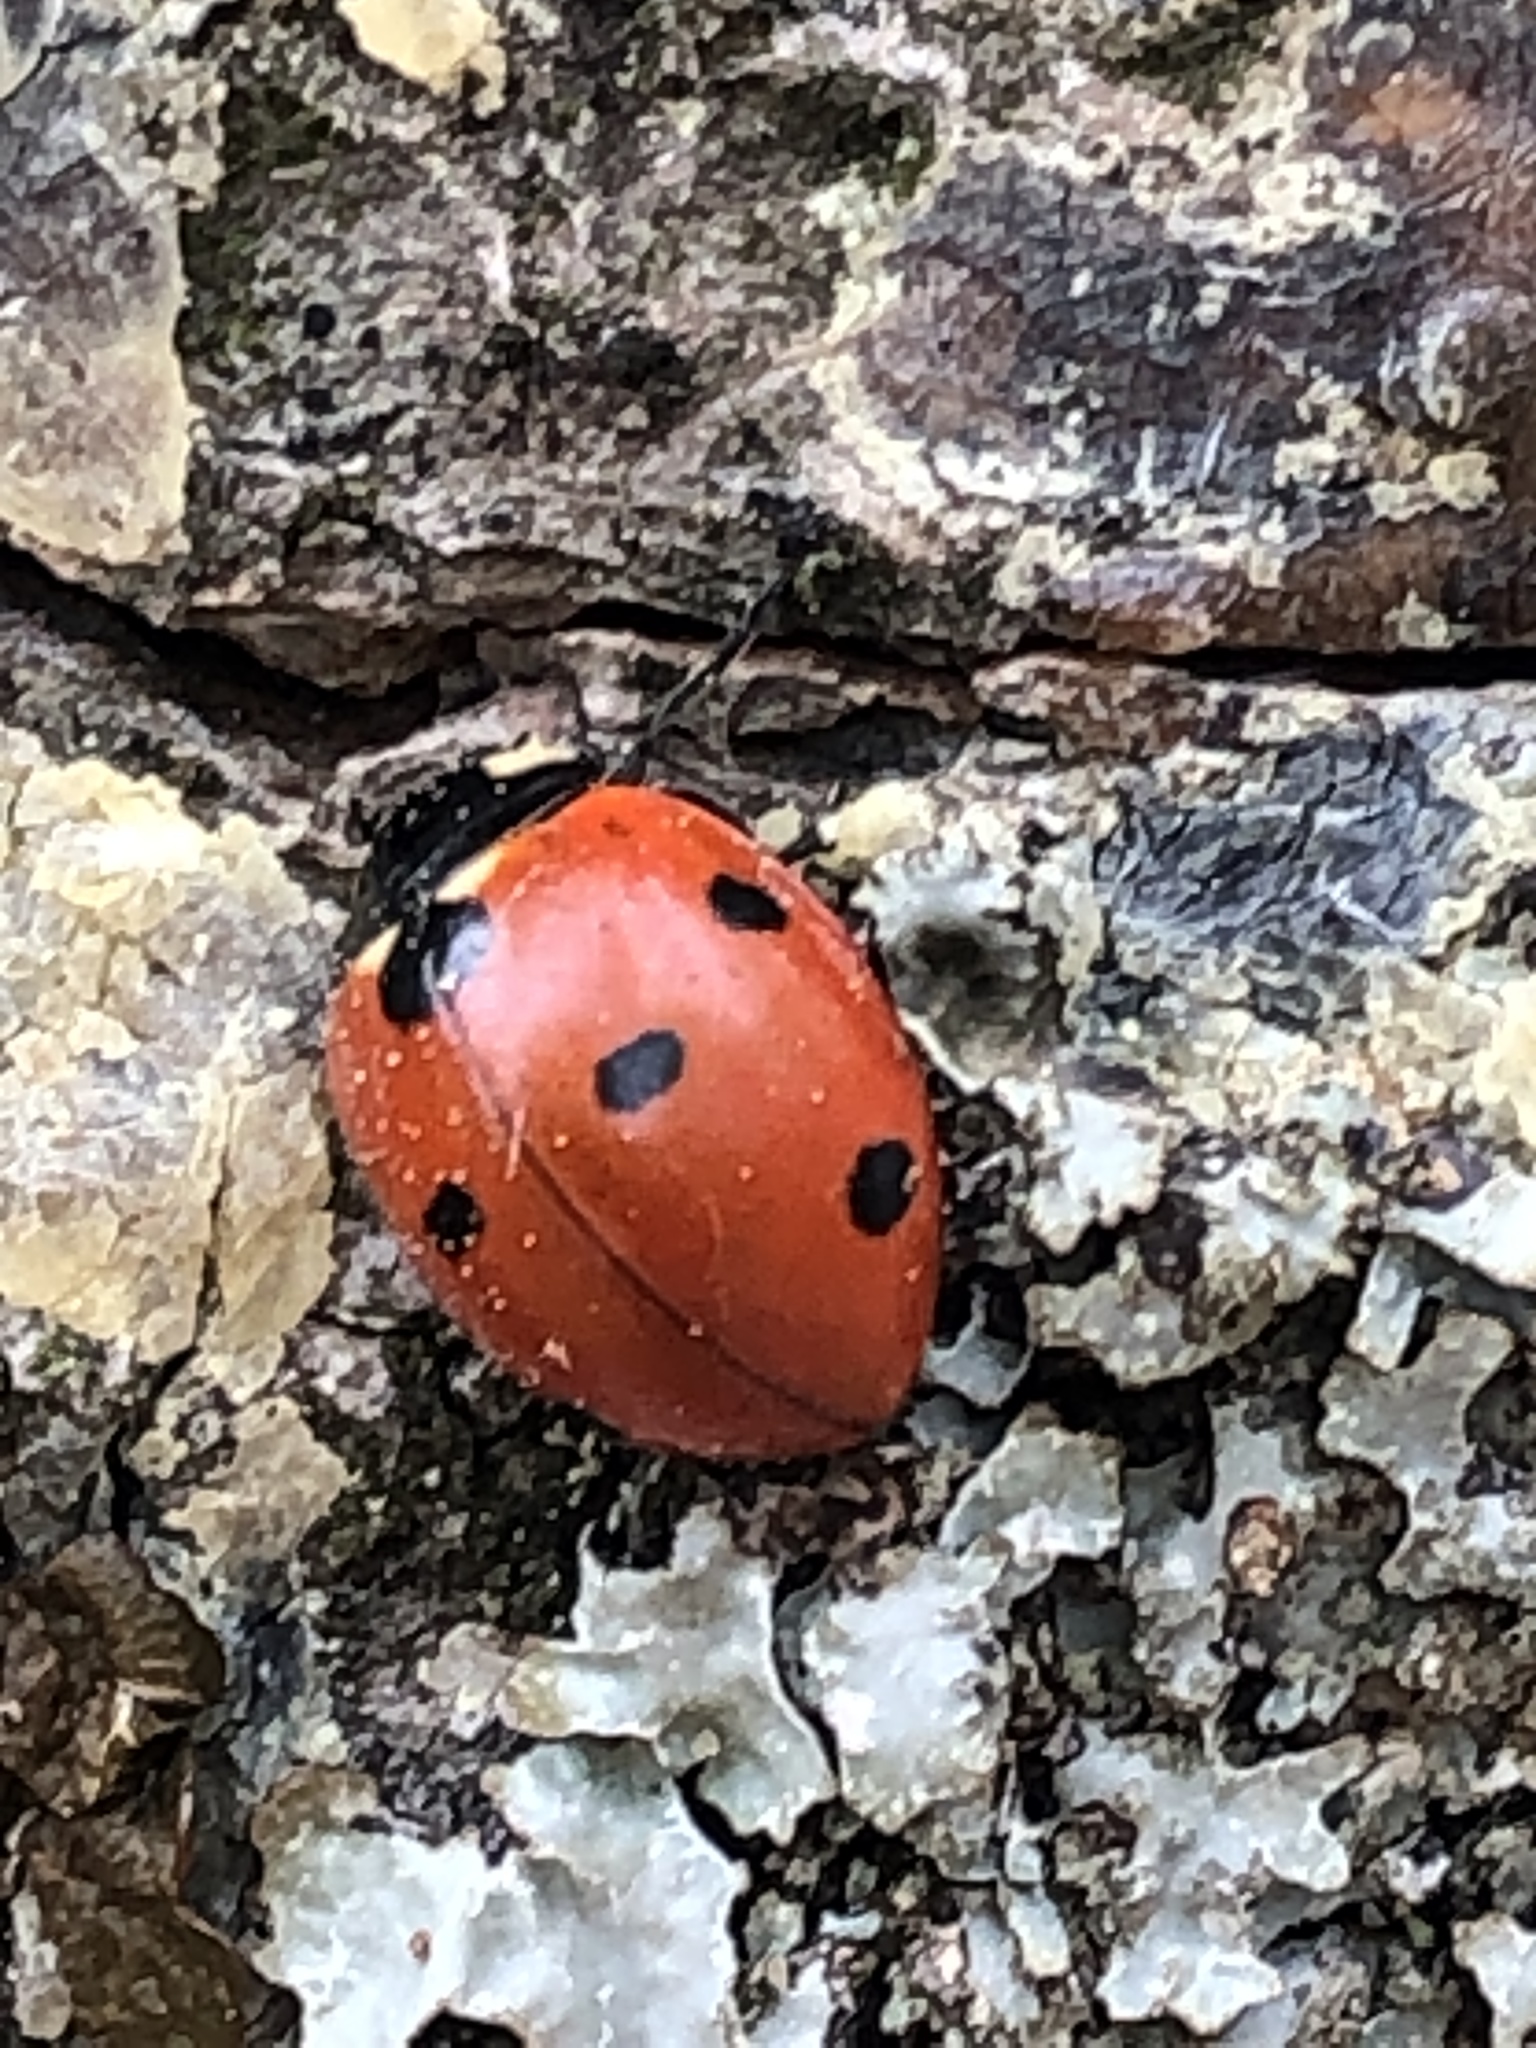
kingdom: Animalia
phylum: Arthropoda
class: Insecta
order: Coleoptera
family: Coccinellidae
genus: Coccinella
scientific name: Coccinella septempunctata
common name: Sevenspotted lady beetle
